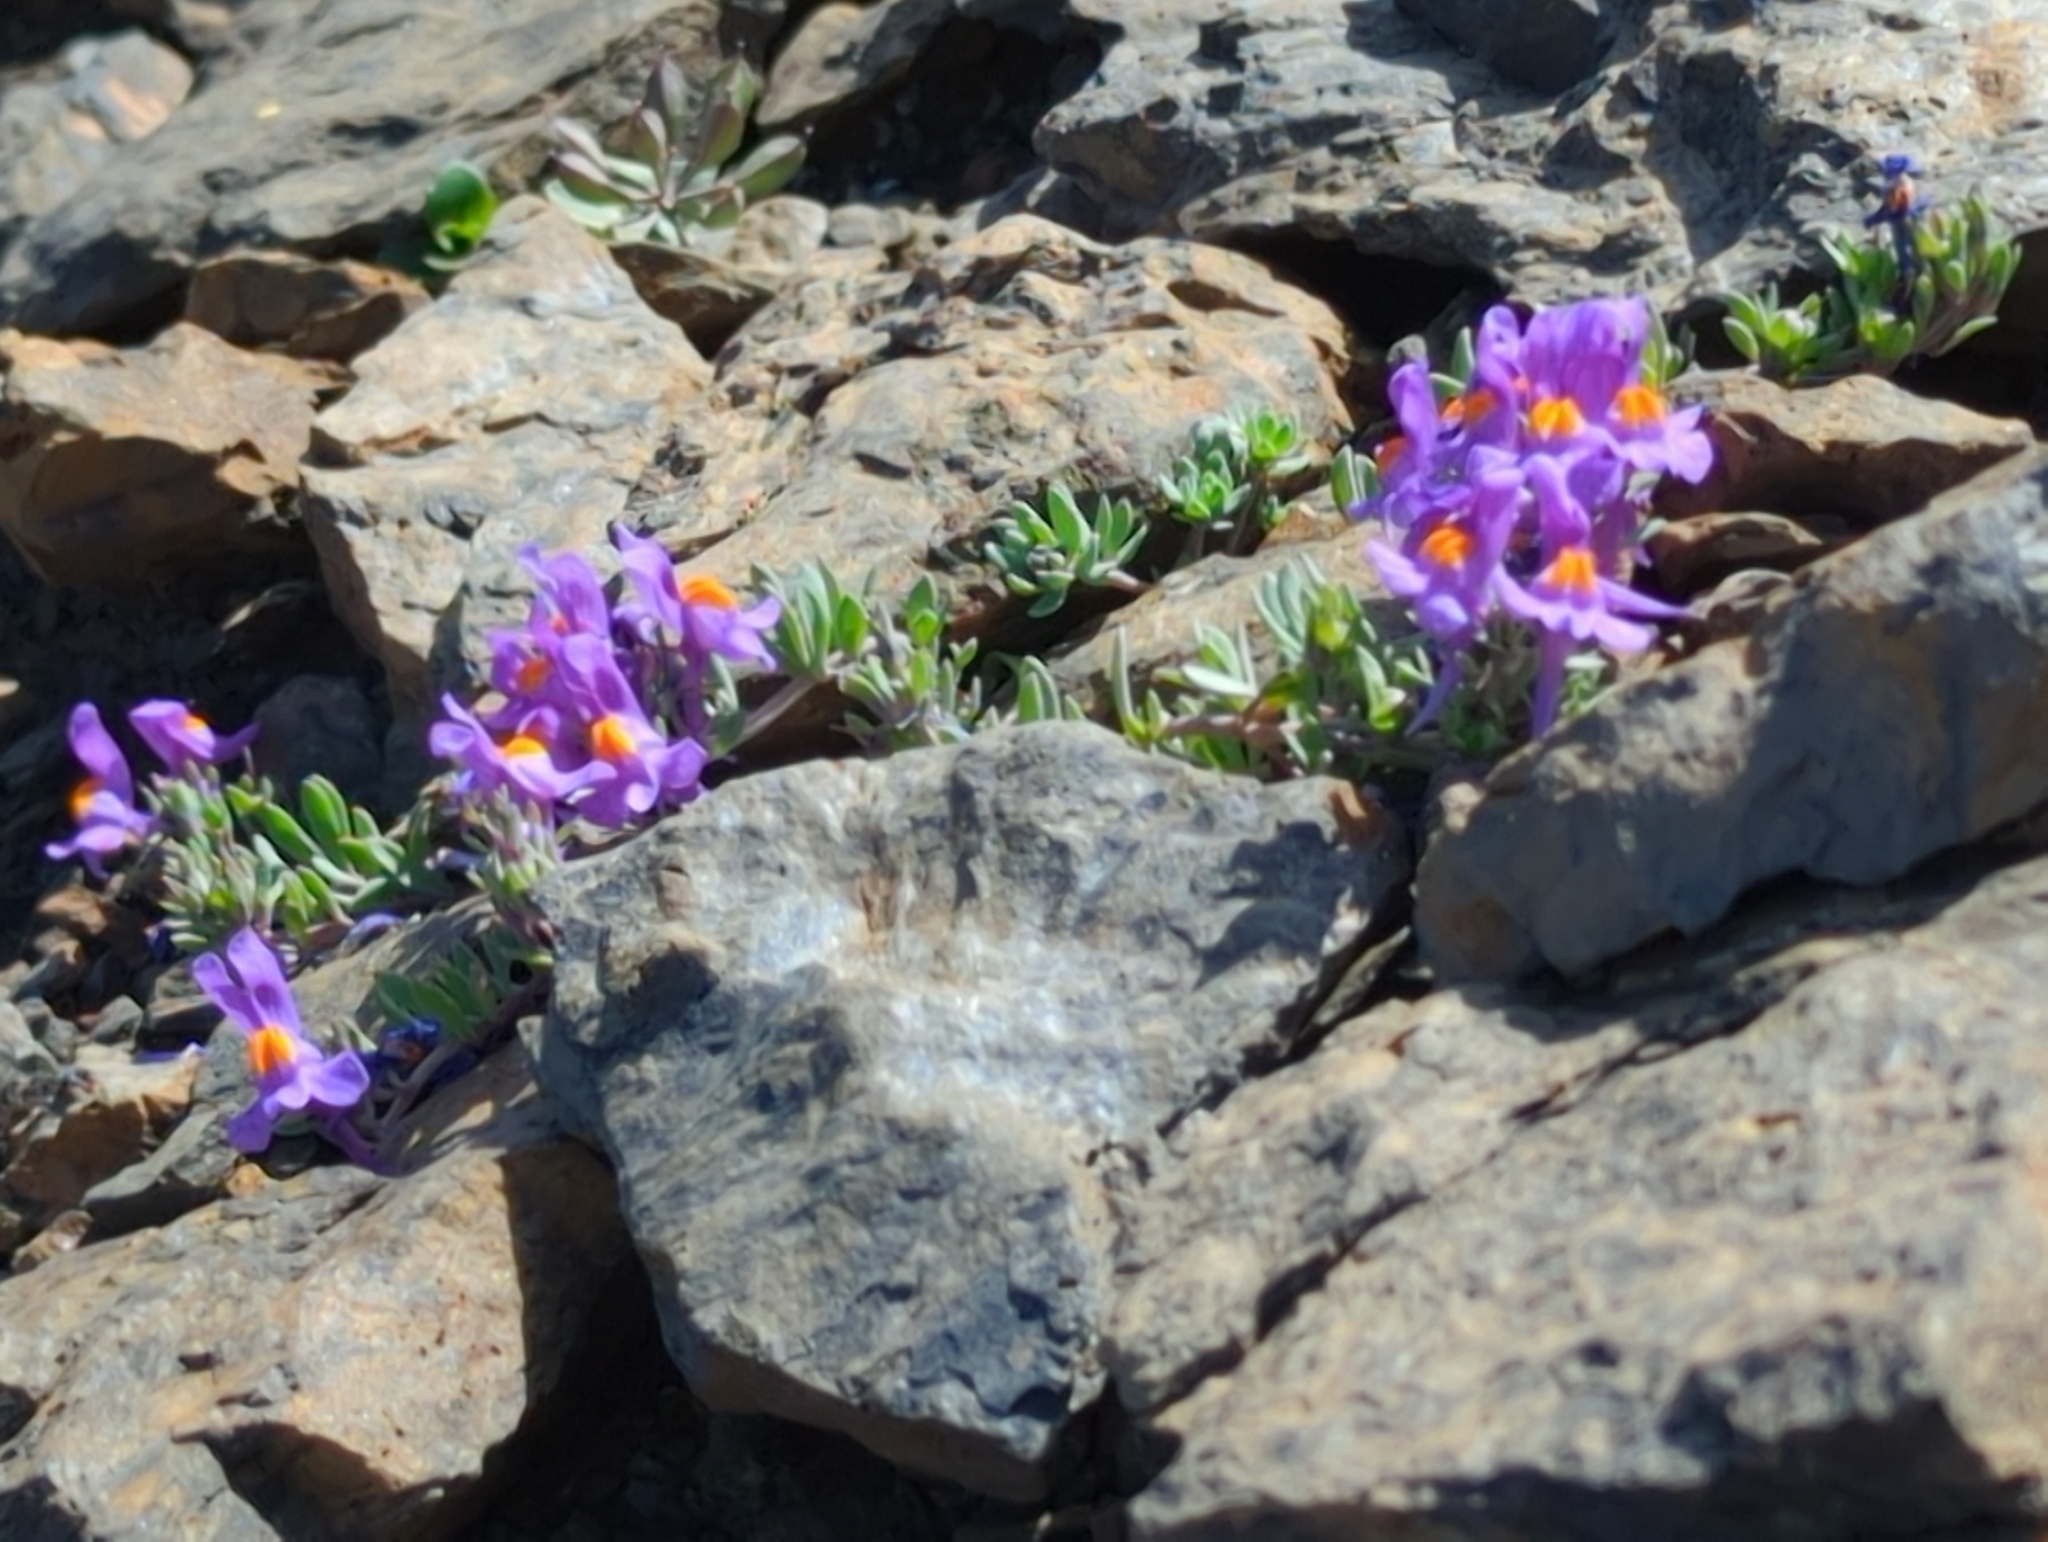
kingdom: Plantae
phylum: Tracheophyta
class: Magnoliopsida
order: Lamiales
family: Plantaginaceae
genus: Linaria
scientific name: Linaria alpina
